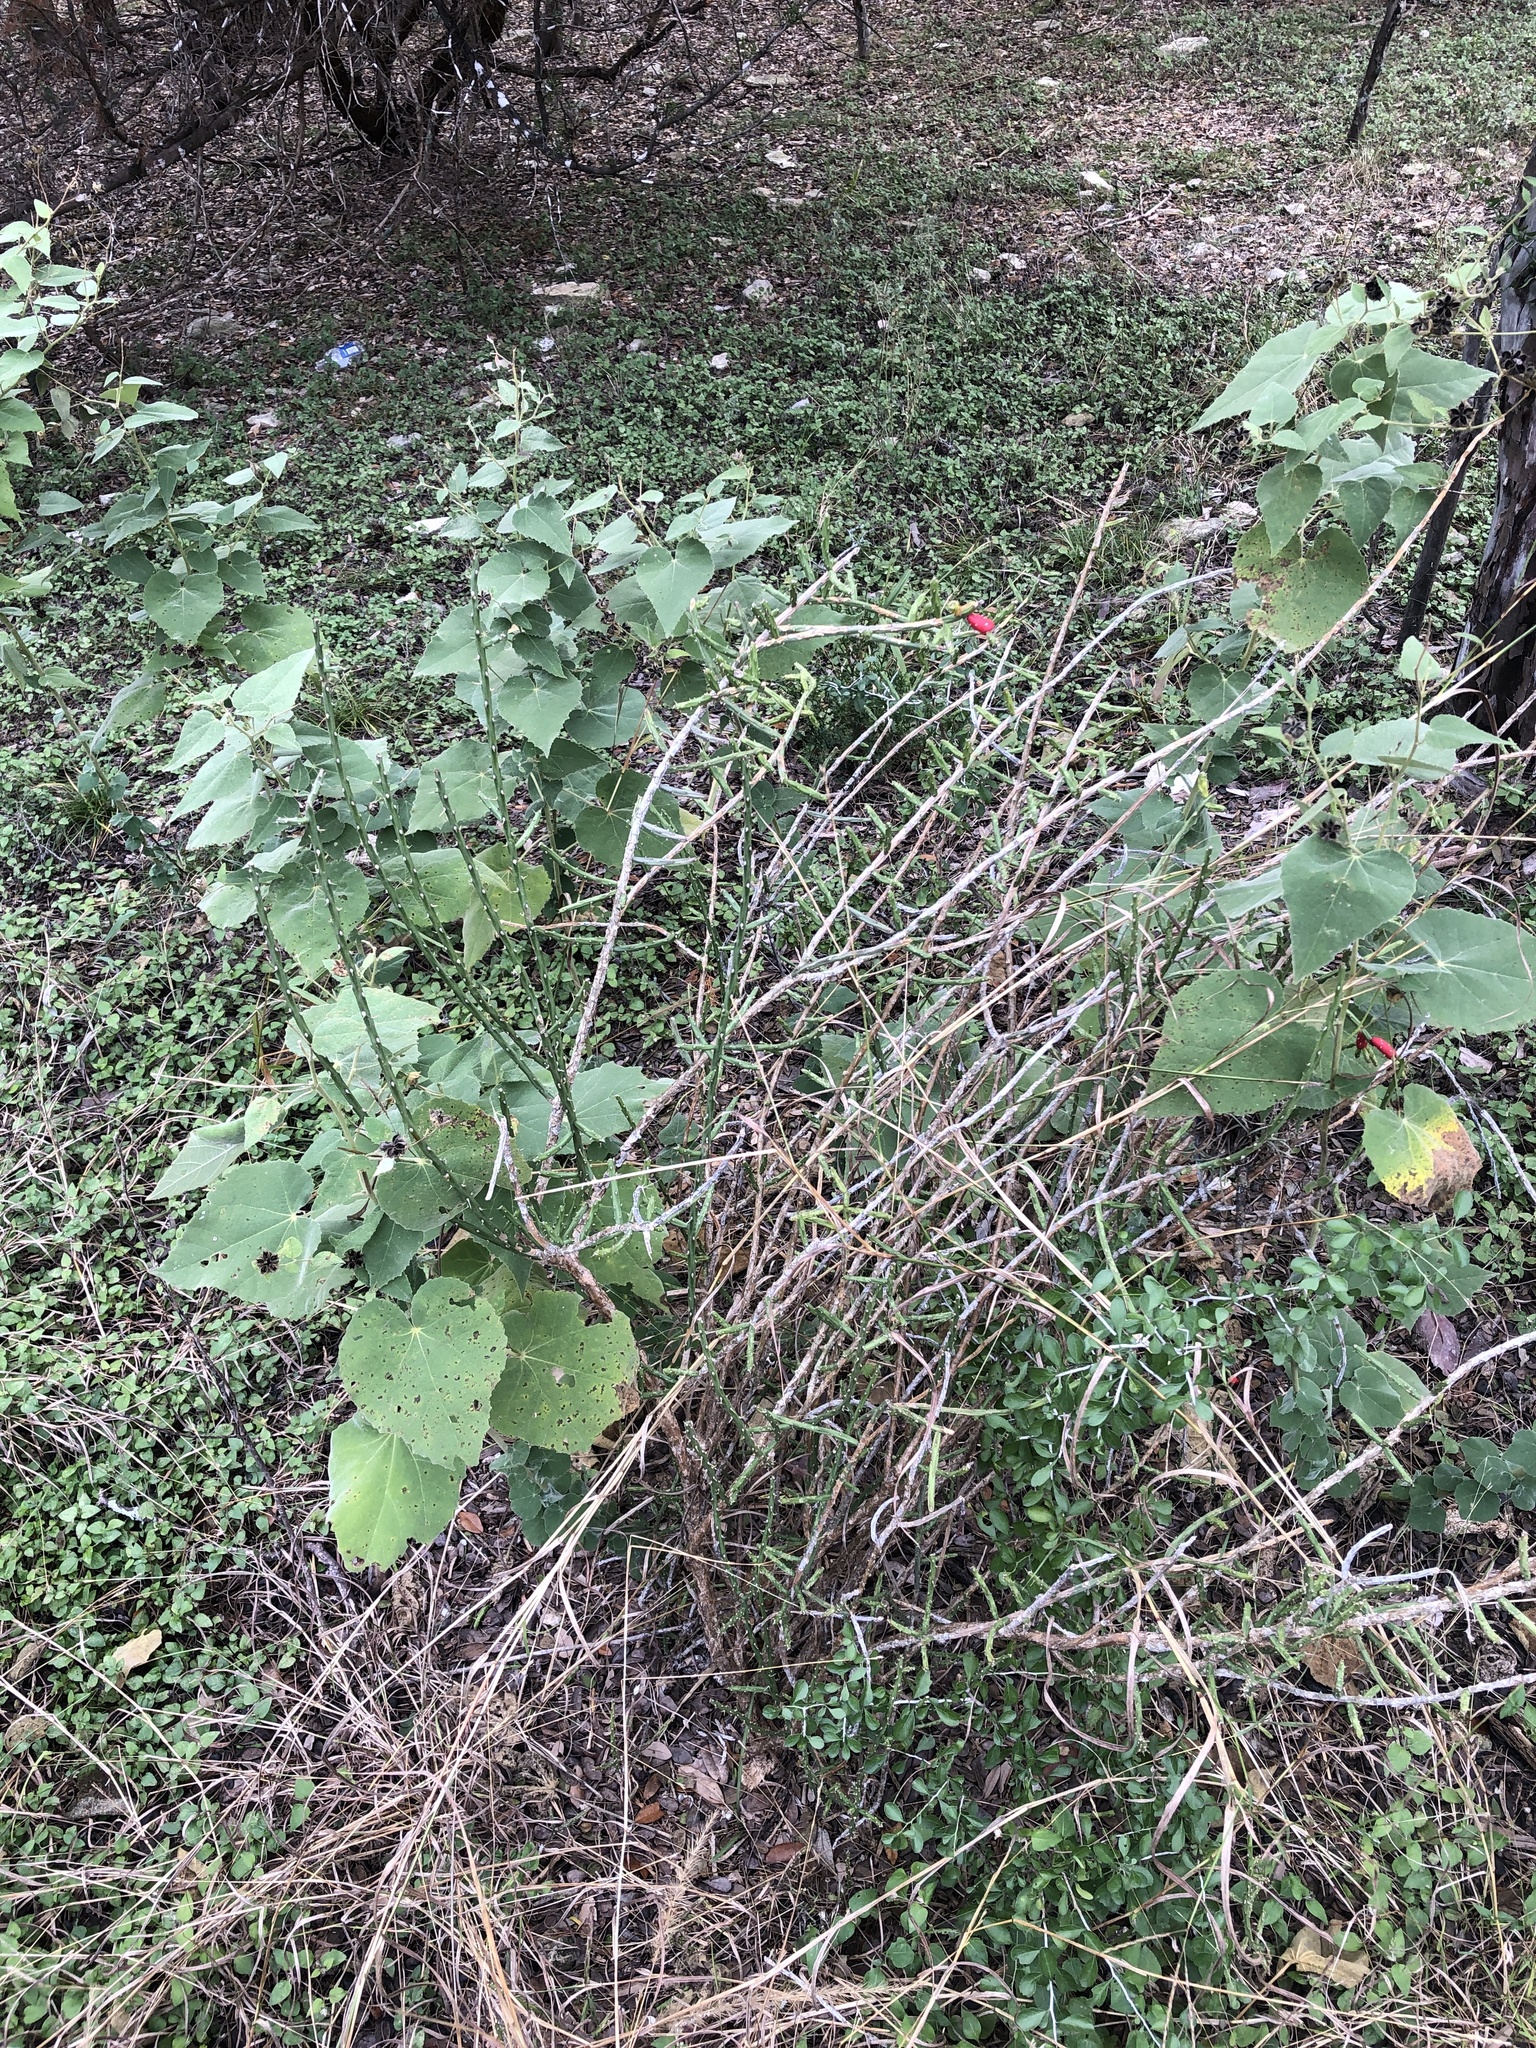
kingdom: Plantae
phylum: Tracheophyta
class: Magnoliopsida
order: Caryophyllales
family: Cactaceae
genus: Cylindropuntia
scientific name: Cylindropuntia leptocaulis
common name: Christmas cactus
